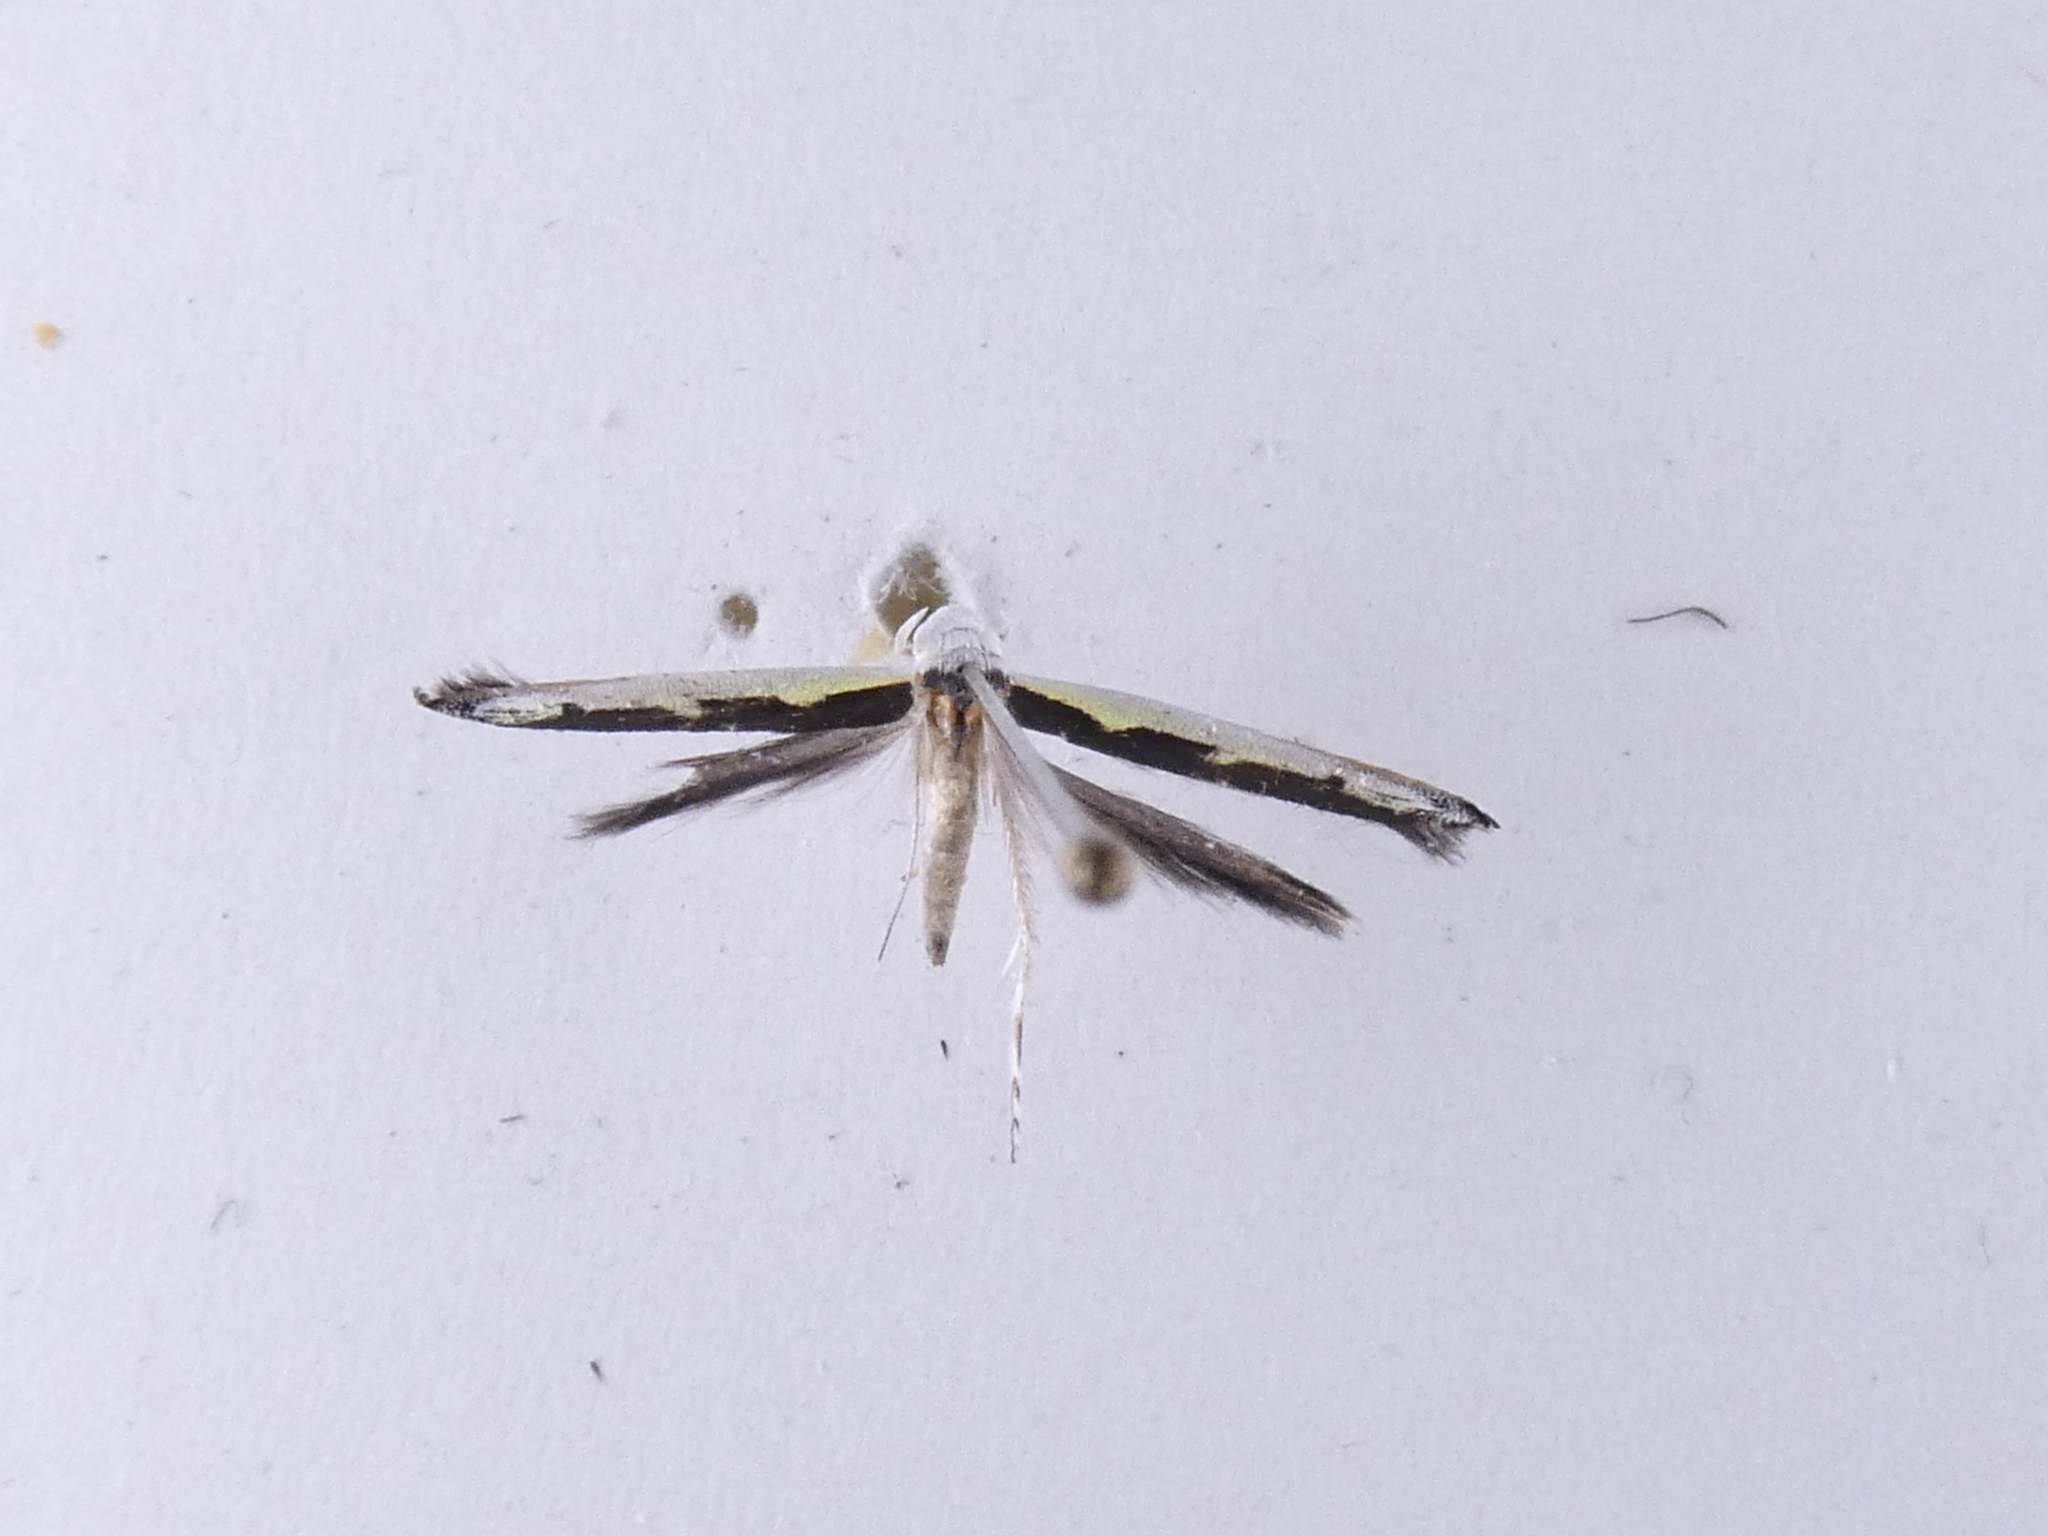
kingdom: Animalia
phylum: Arthropoda
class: Insecta
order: Lepidoptera
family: Roeslerstammiidae
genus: Vanicela
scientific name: Vanicela disjunctella
